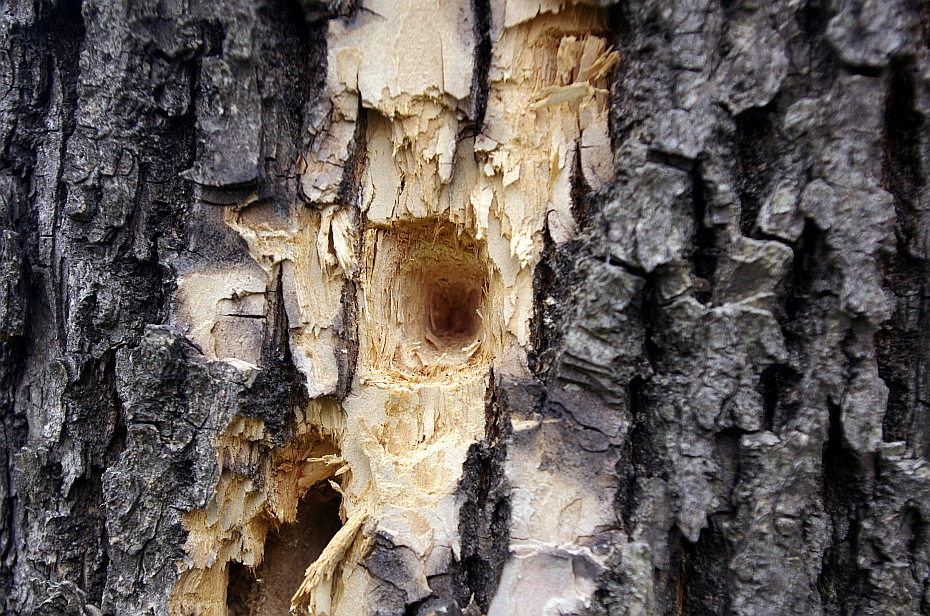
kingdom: Animalia
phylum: Chordata
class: Aves
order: Piciformes
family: Picidae
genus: Dendrocopos
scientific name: Dendrocopos major
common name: Great spotted woodpecker
